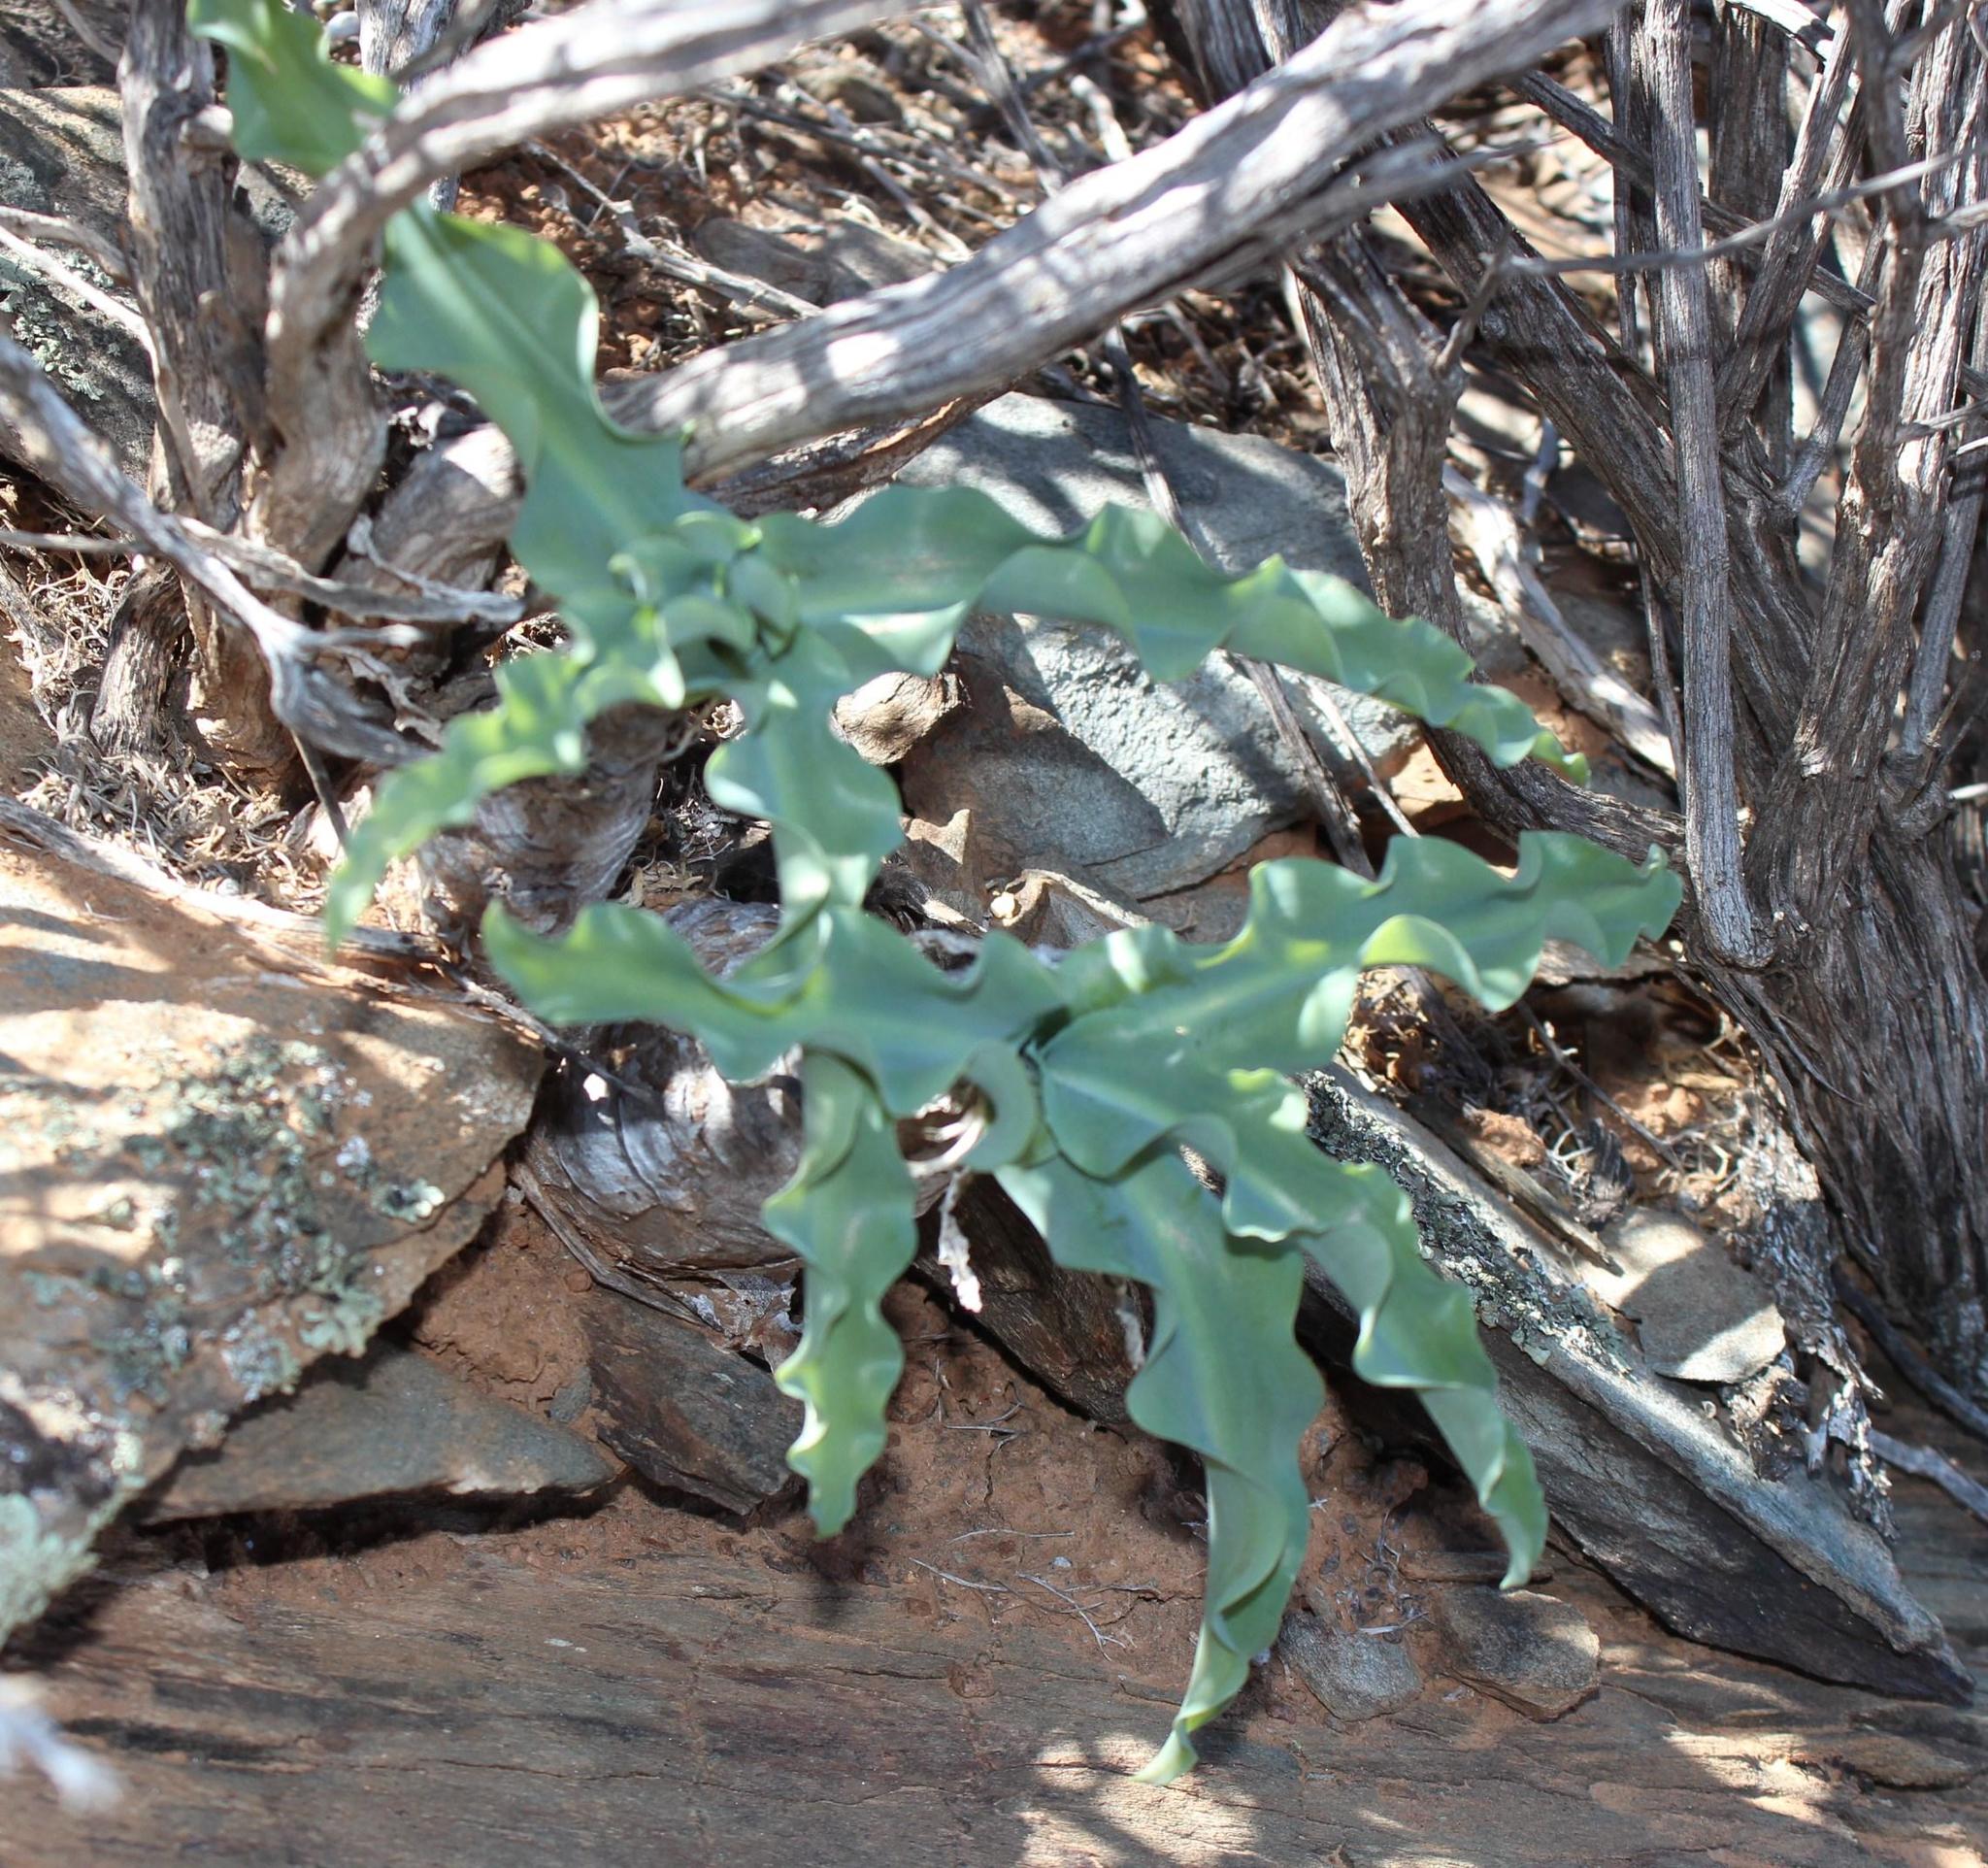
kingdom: Plantae
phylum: Tracheophyta
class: Liliopsida
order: Asparagales
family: Asparagaceae
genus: Veltheimia
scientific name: Veltheimia capensis
